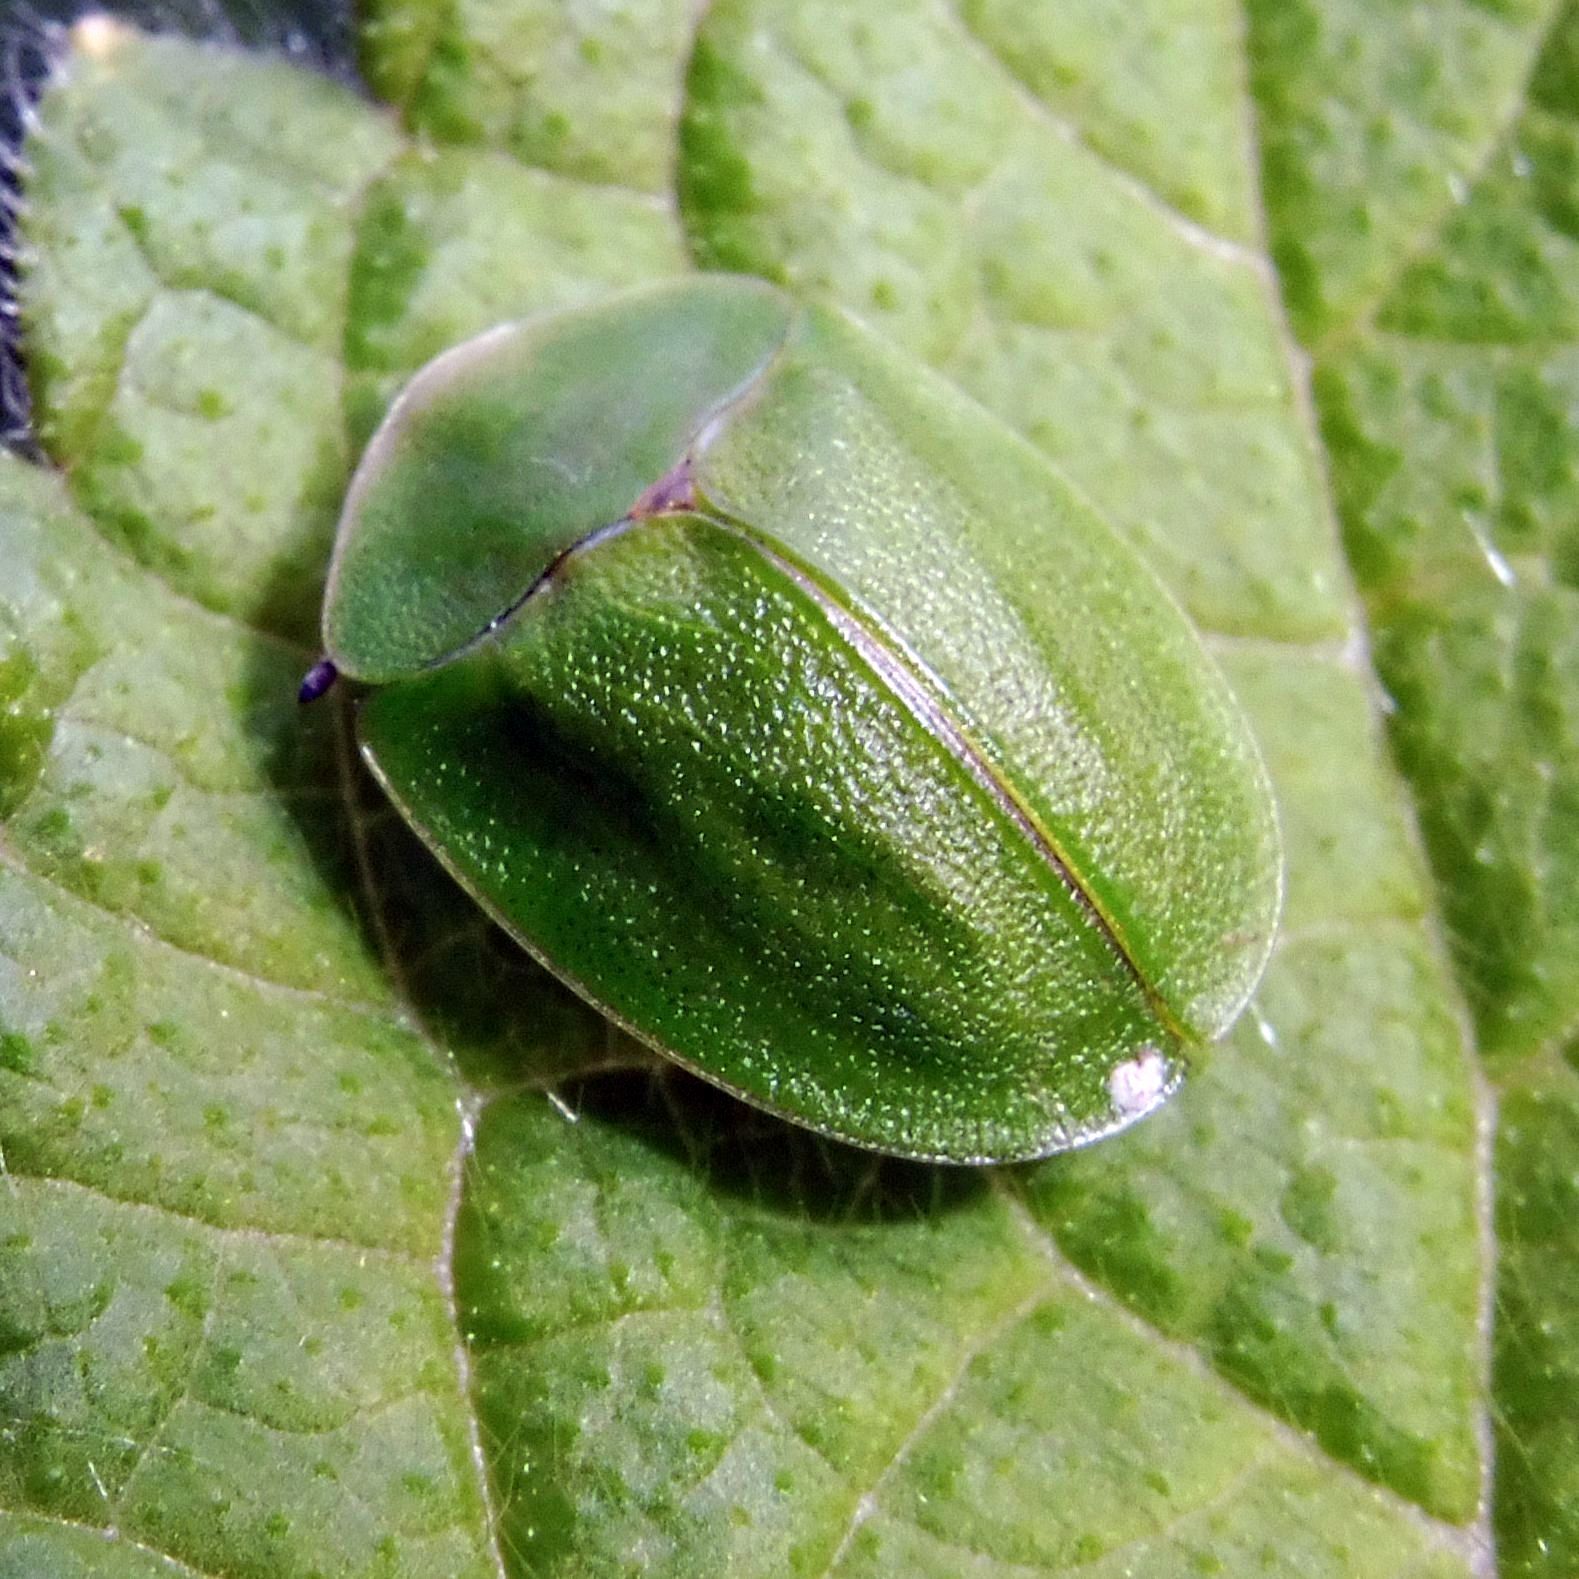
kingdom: Animalia
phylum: Arthropoda
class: Insecta
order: Coleoptera
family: Chrysomelidae
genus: Cassida
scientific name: Cassida viridis
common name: Green tortoise beetle
